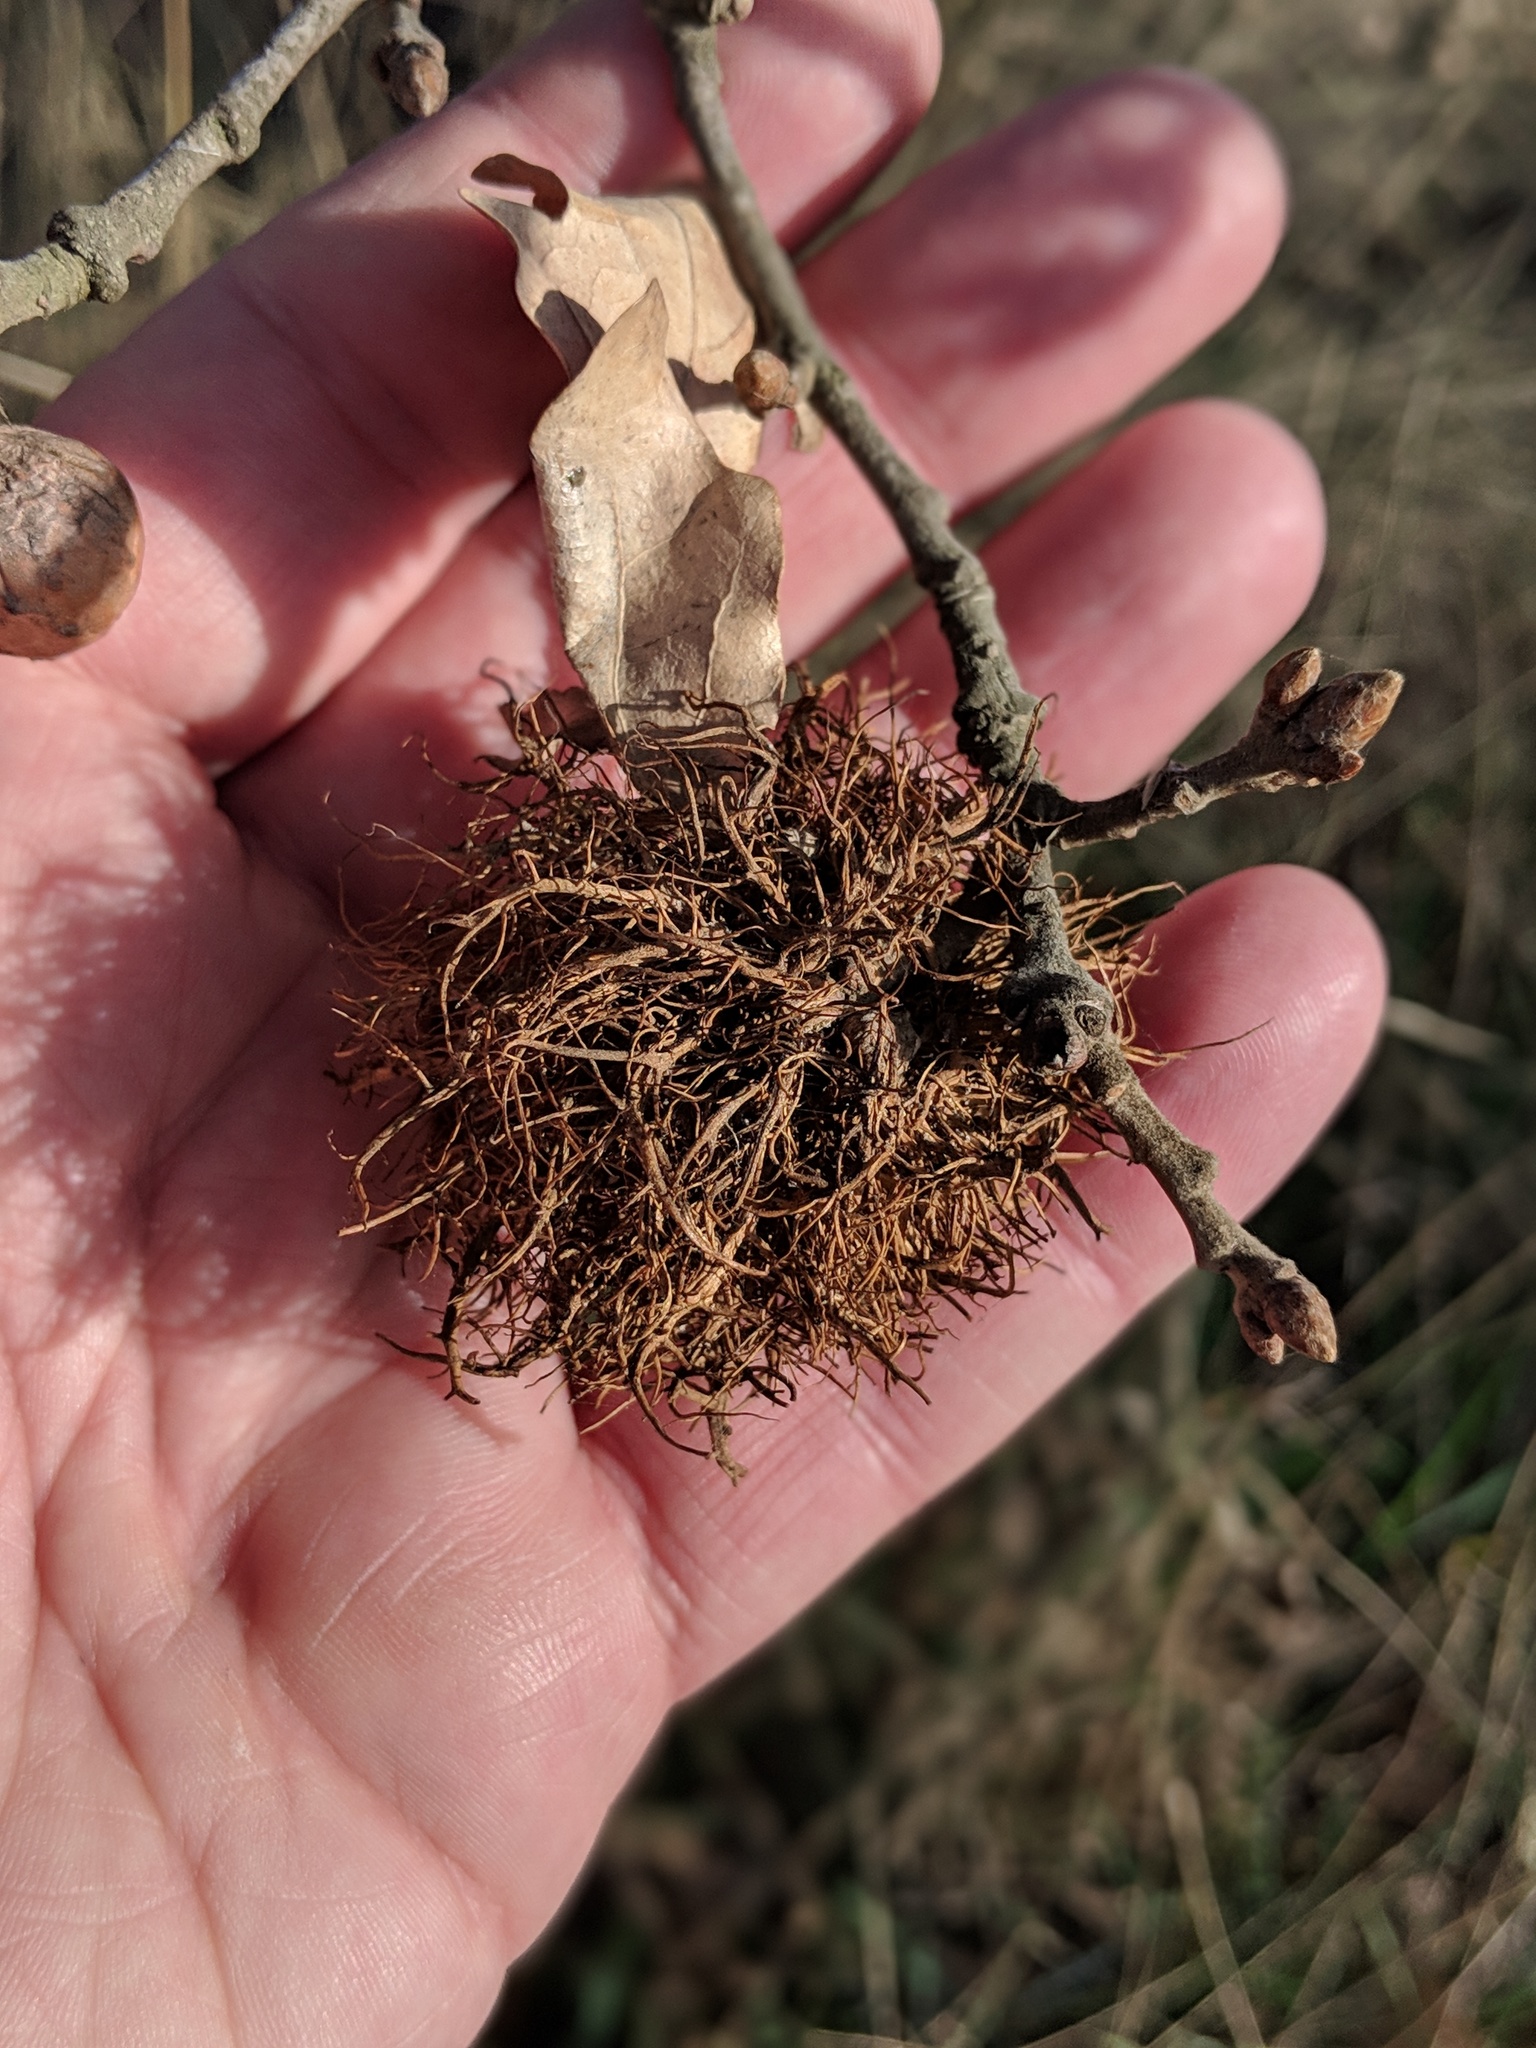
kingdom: Animalia
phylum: Arthropoda
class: Insecta
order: Hymenoptera
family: Cynipidae
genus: Andricus
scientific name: Andricus caputmedusae
